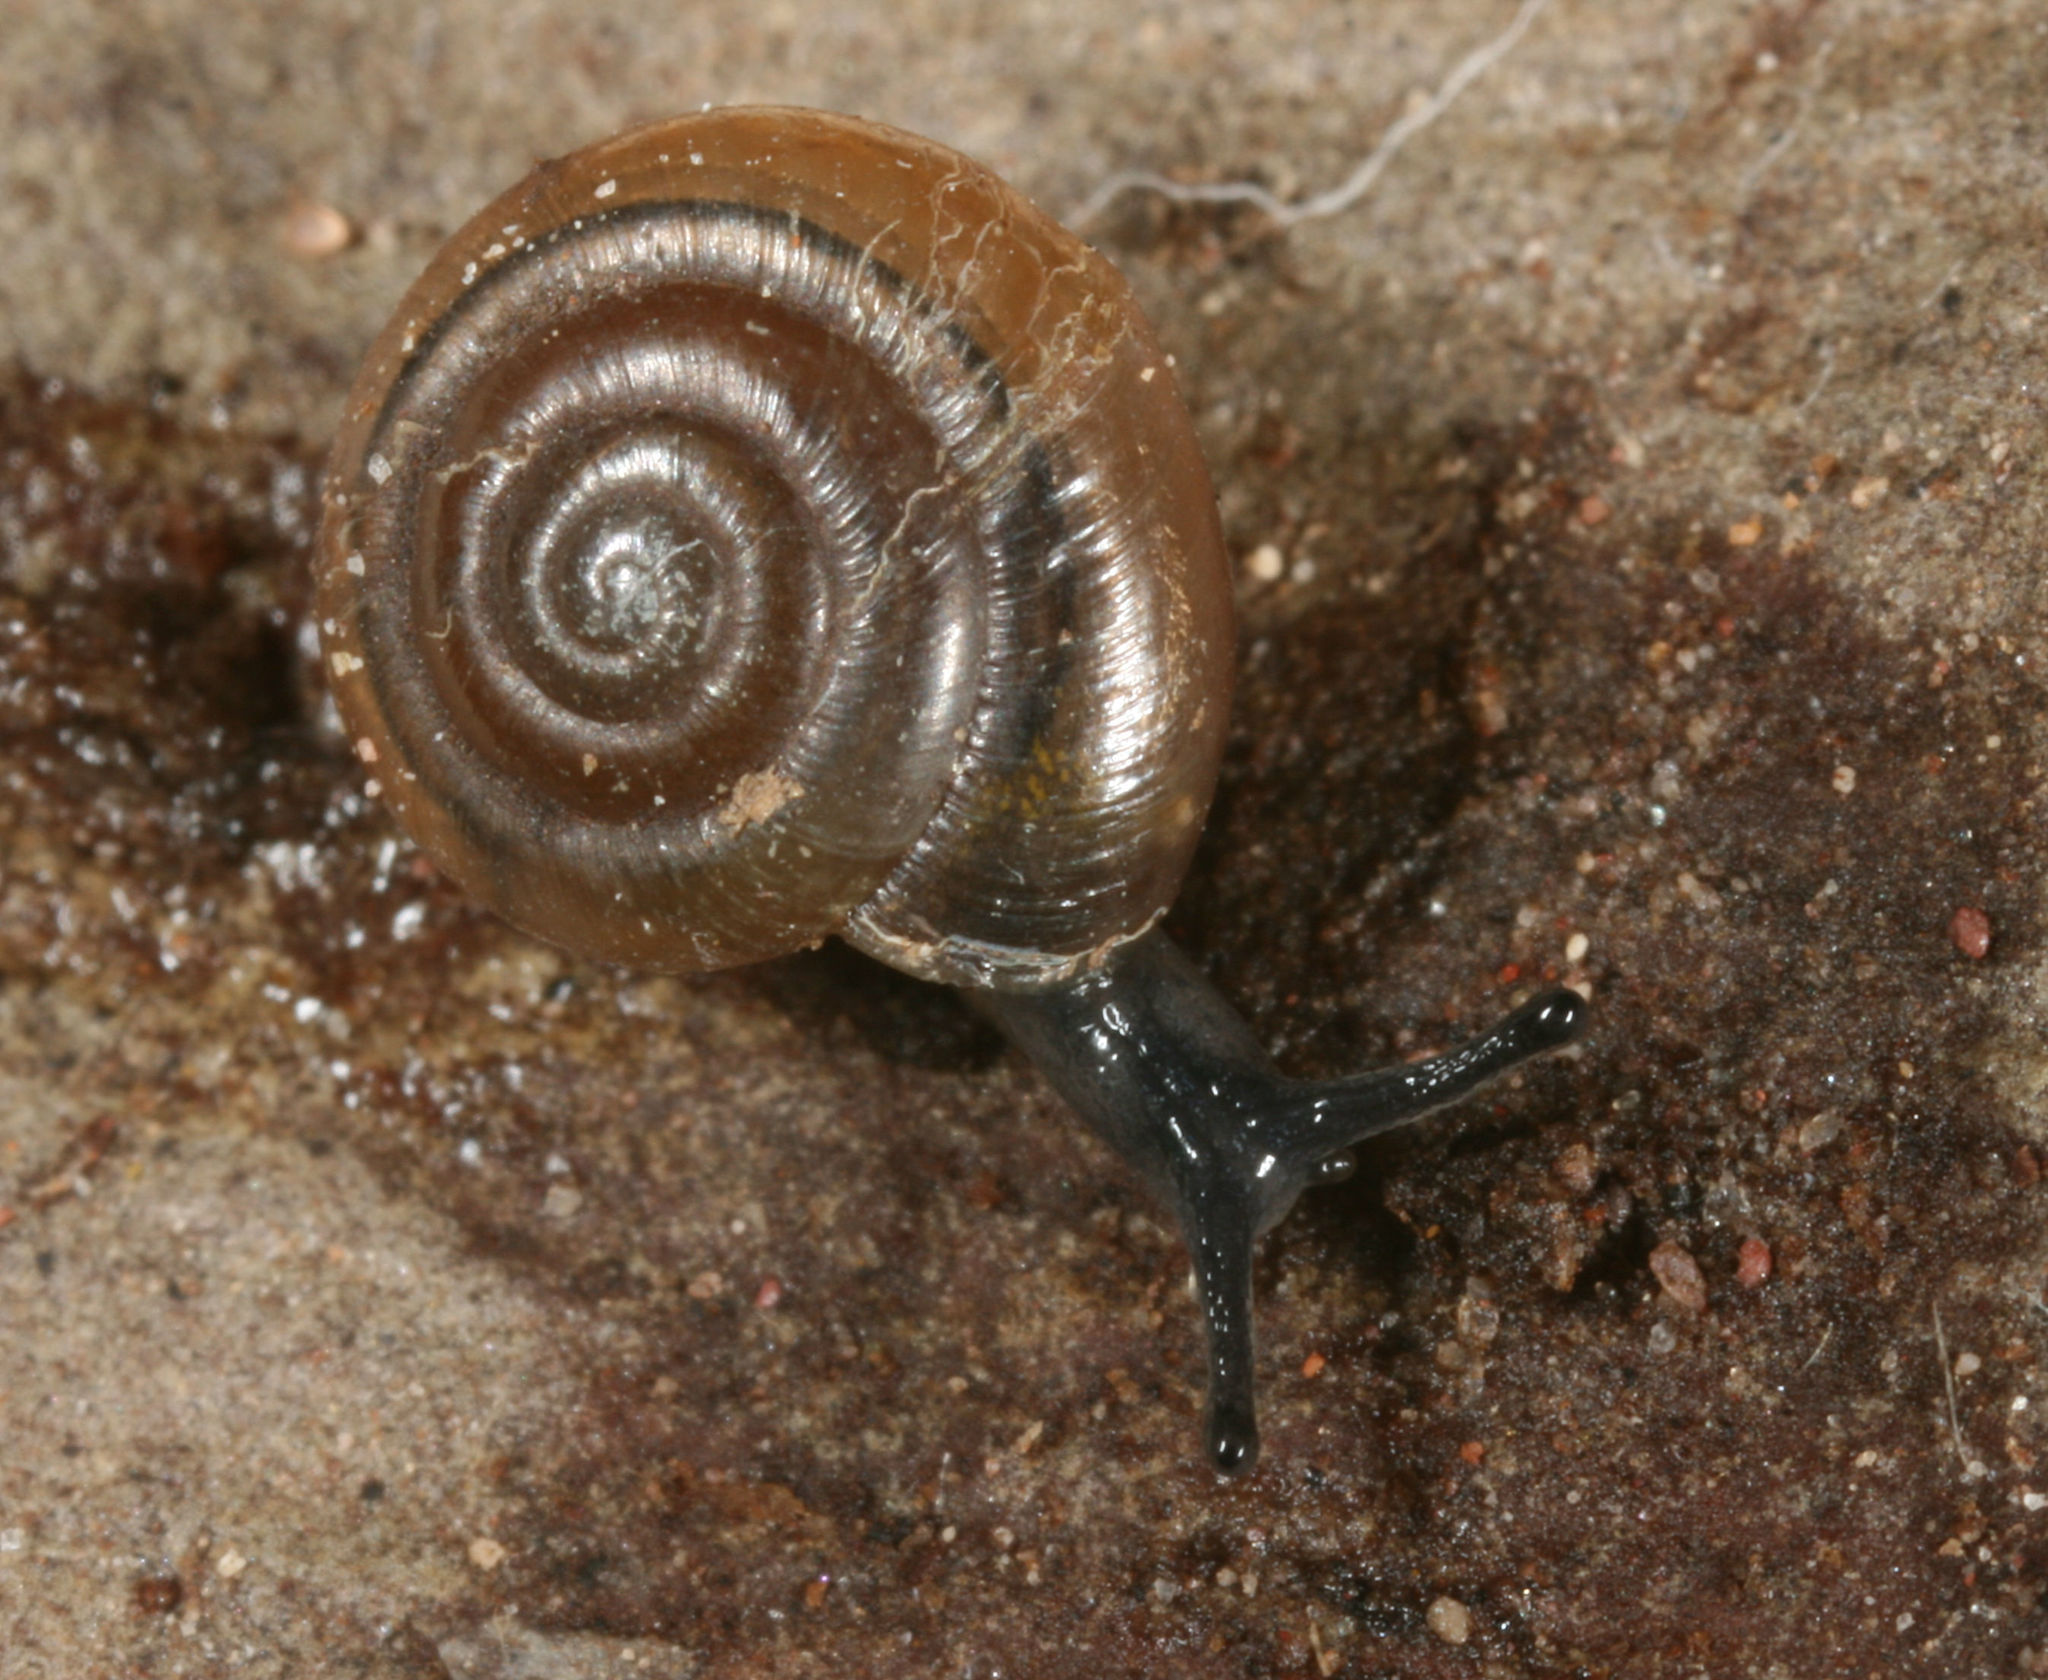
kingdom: Animalia
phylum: Mollusca
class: Gastropoda
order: Stylommatophora
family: Gastrodontidae
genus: Zonitoides
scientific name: Zonitoides arboreus
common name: Quick gloss
